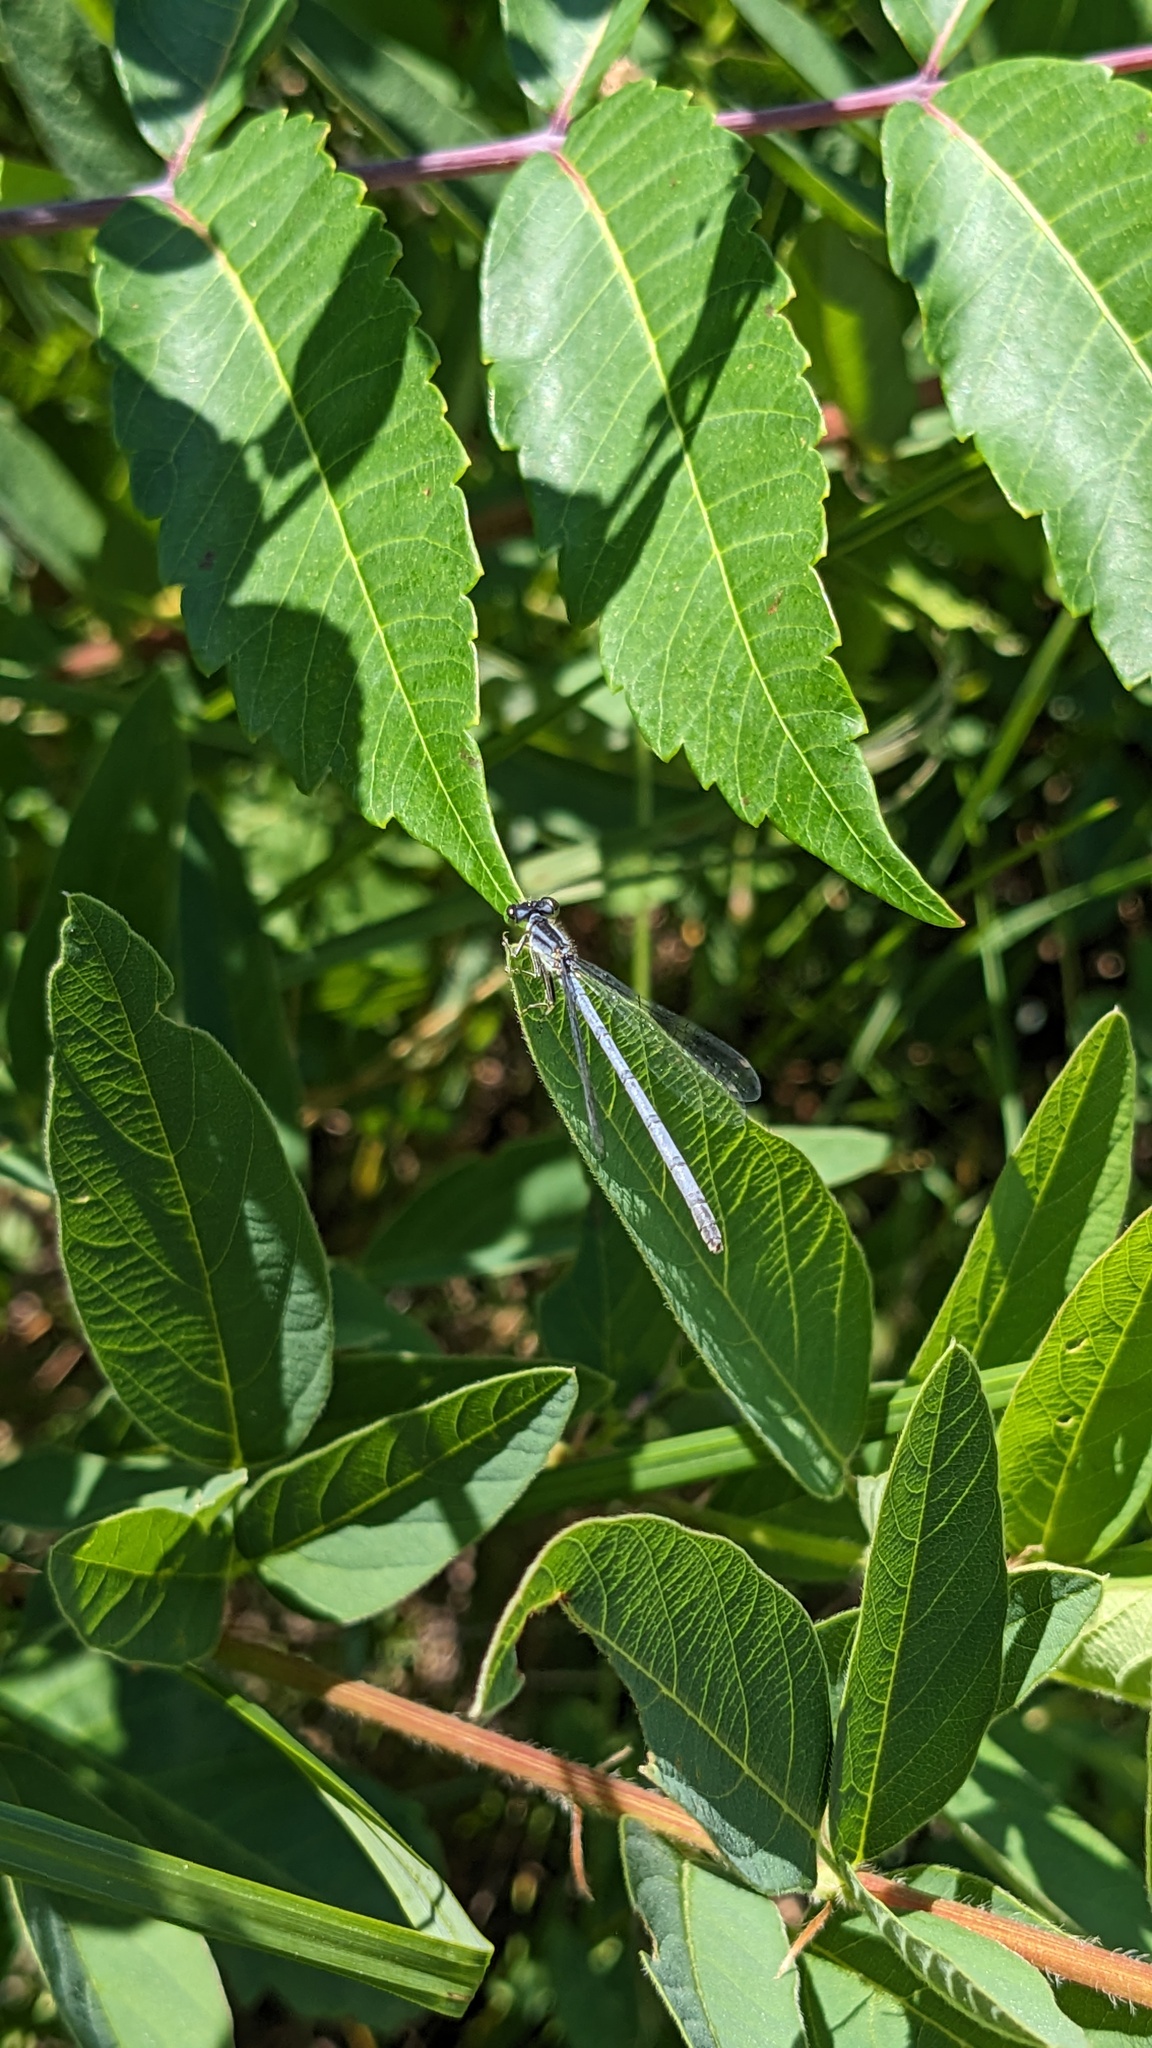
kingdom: Animalia
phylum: Arthropoda
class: Insecta
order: Odonata
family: Coenagrionidae
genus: Ischnura
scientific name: Ischnura verticalis
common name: Eastern forktail
